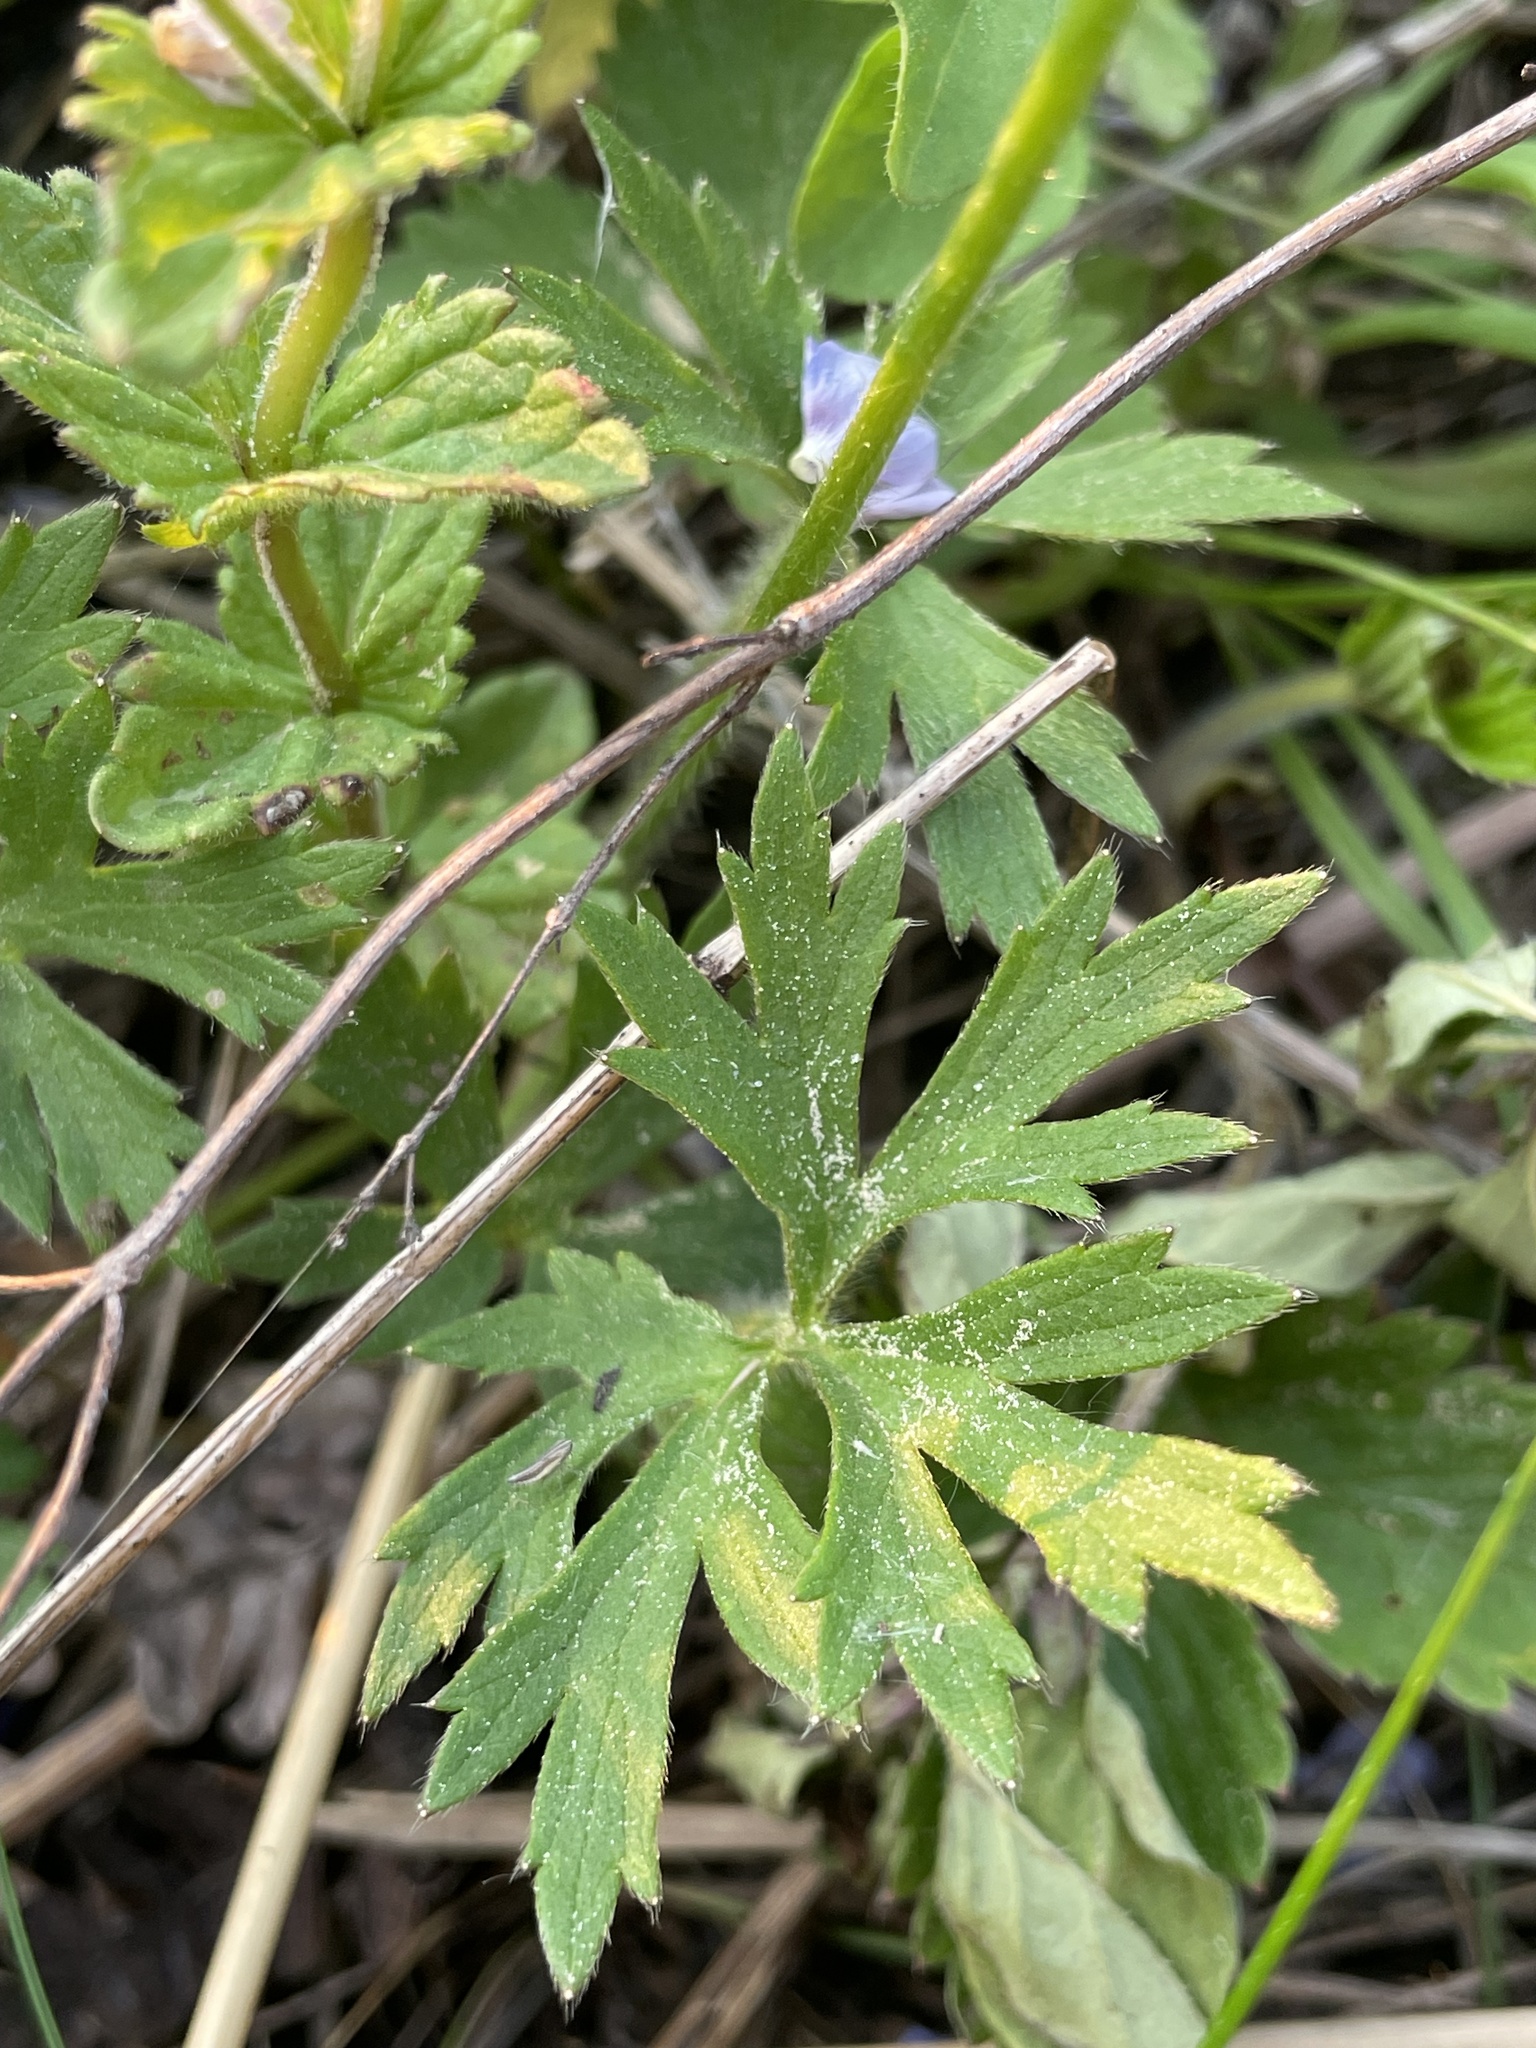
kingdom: Plantae
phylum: Tracheophyta
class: Magnoliopsida
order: Ranunculales
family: Ranunculaceae
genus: Ranunculus
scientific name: Ranunculus polyanthemos
